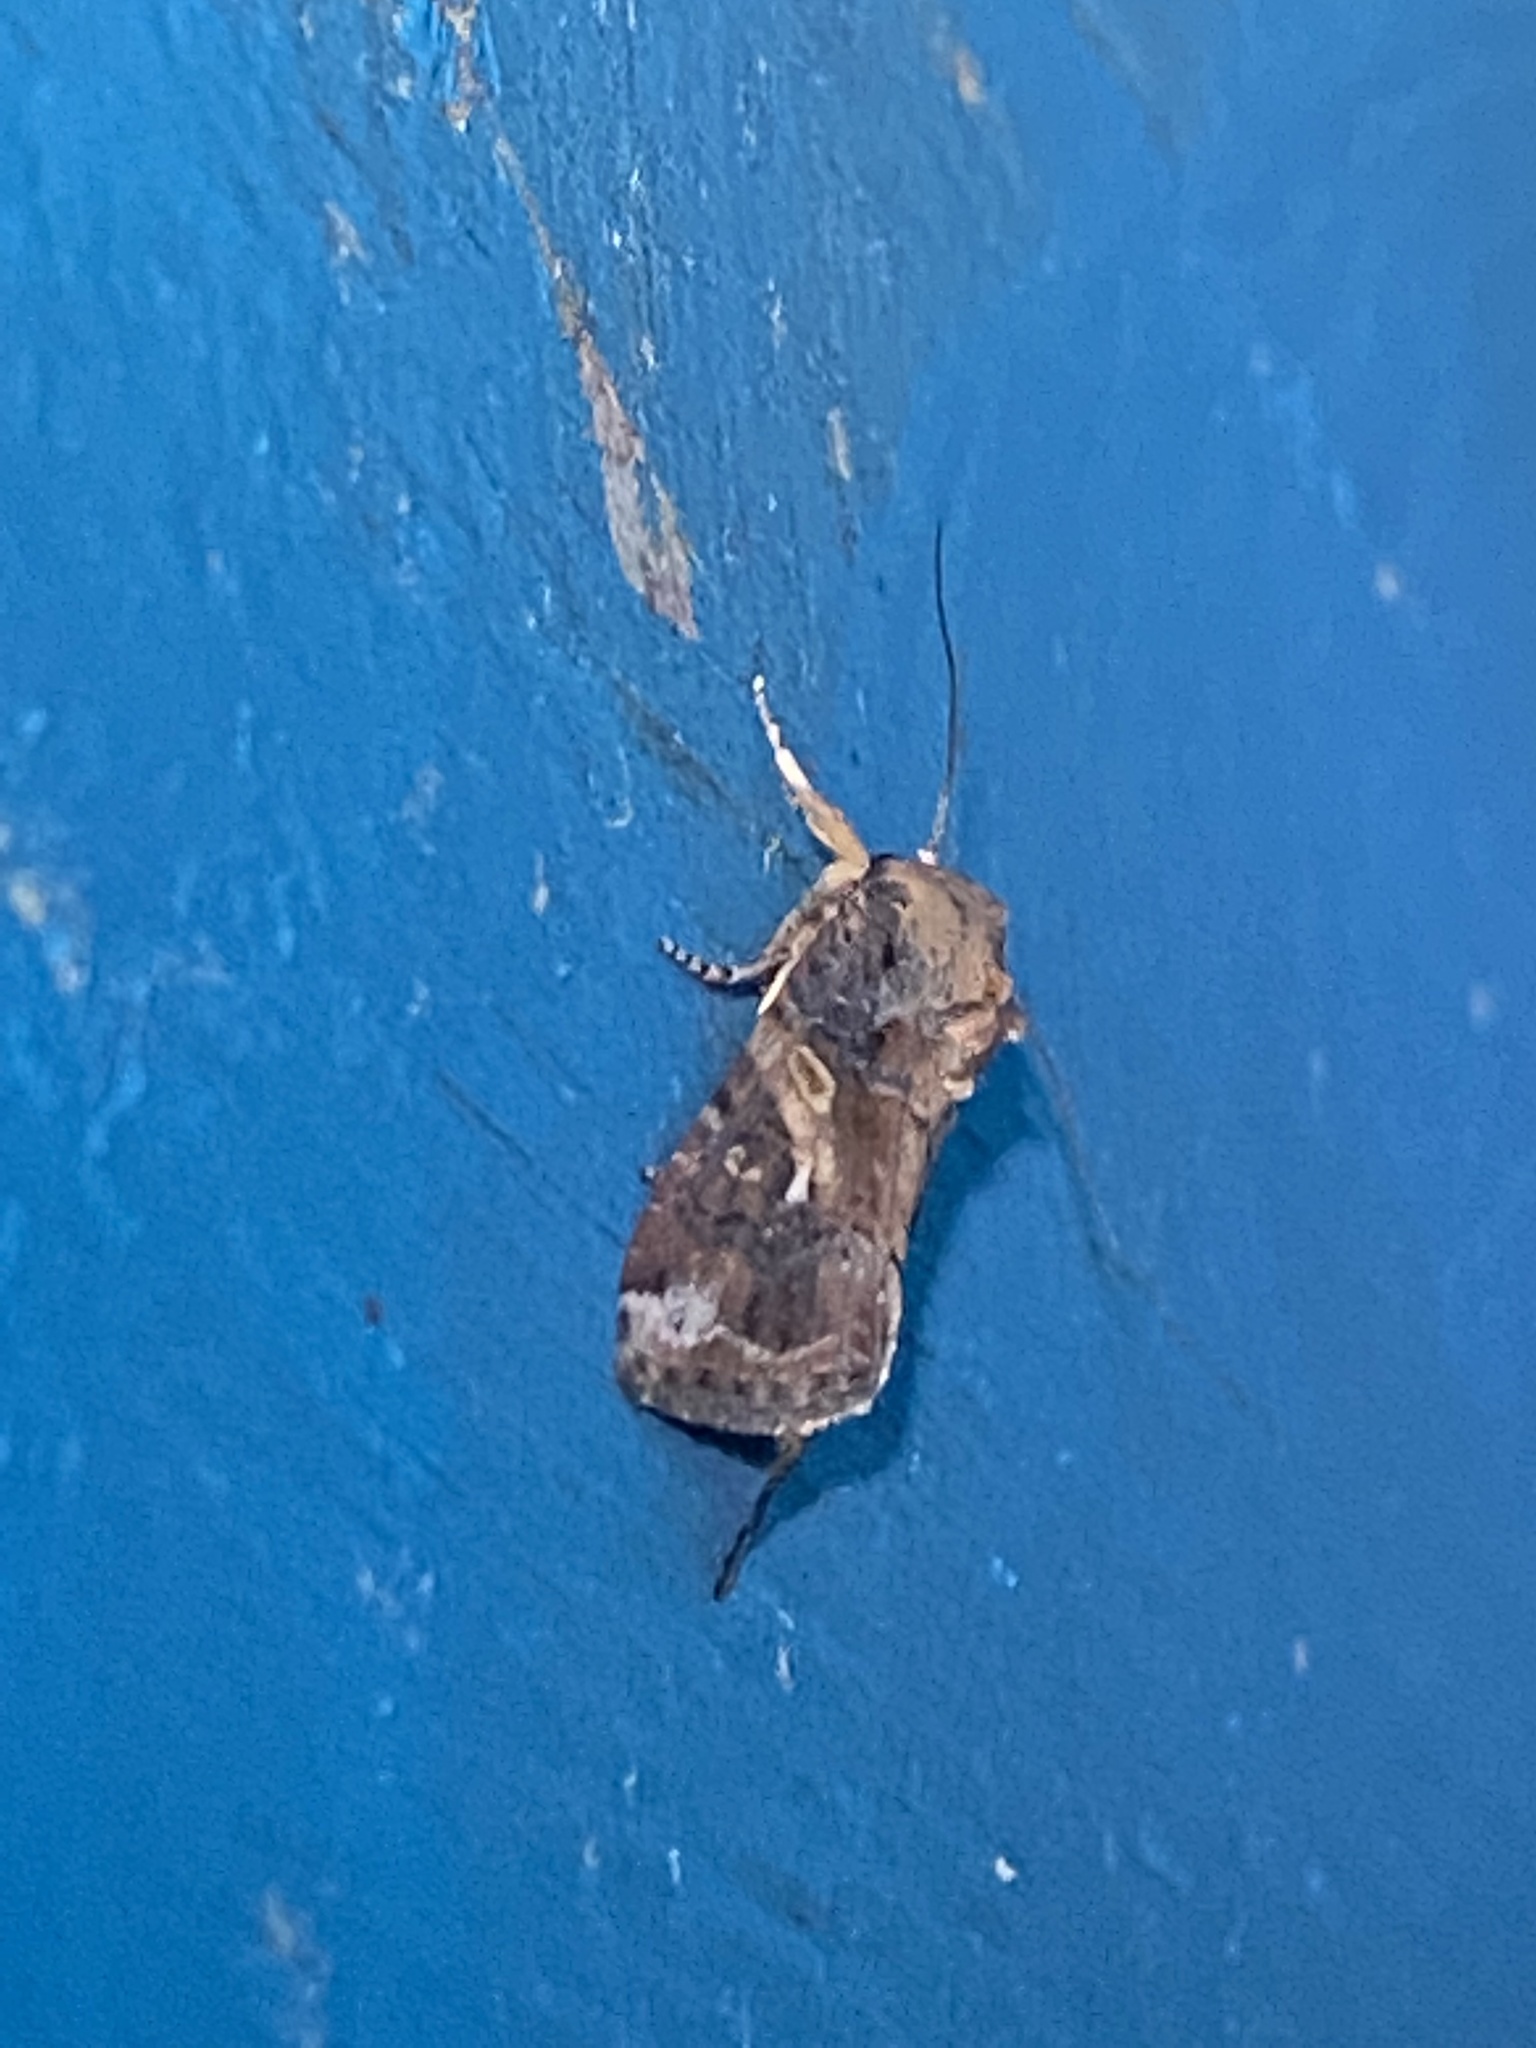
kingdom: Animalia
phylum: Arthropoda
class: Insecta
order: Lepidoptera
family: Noctuidae
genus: Spodoptera
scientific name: Spodoptera frugiperda
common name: Fall armyworm
